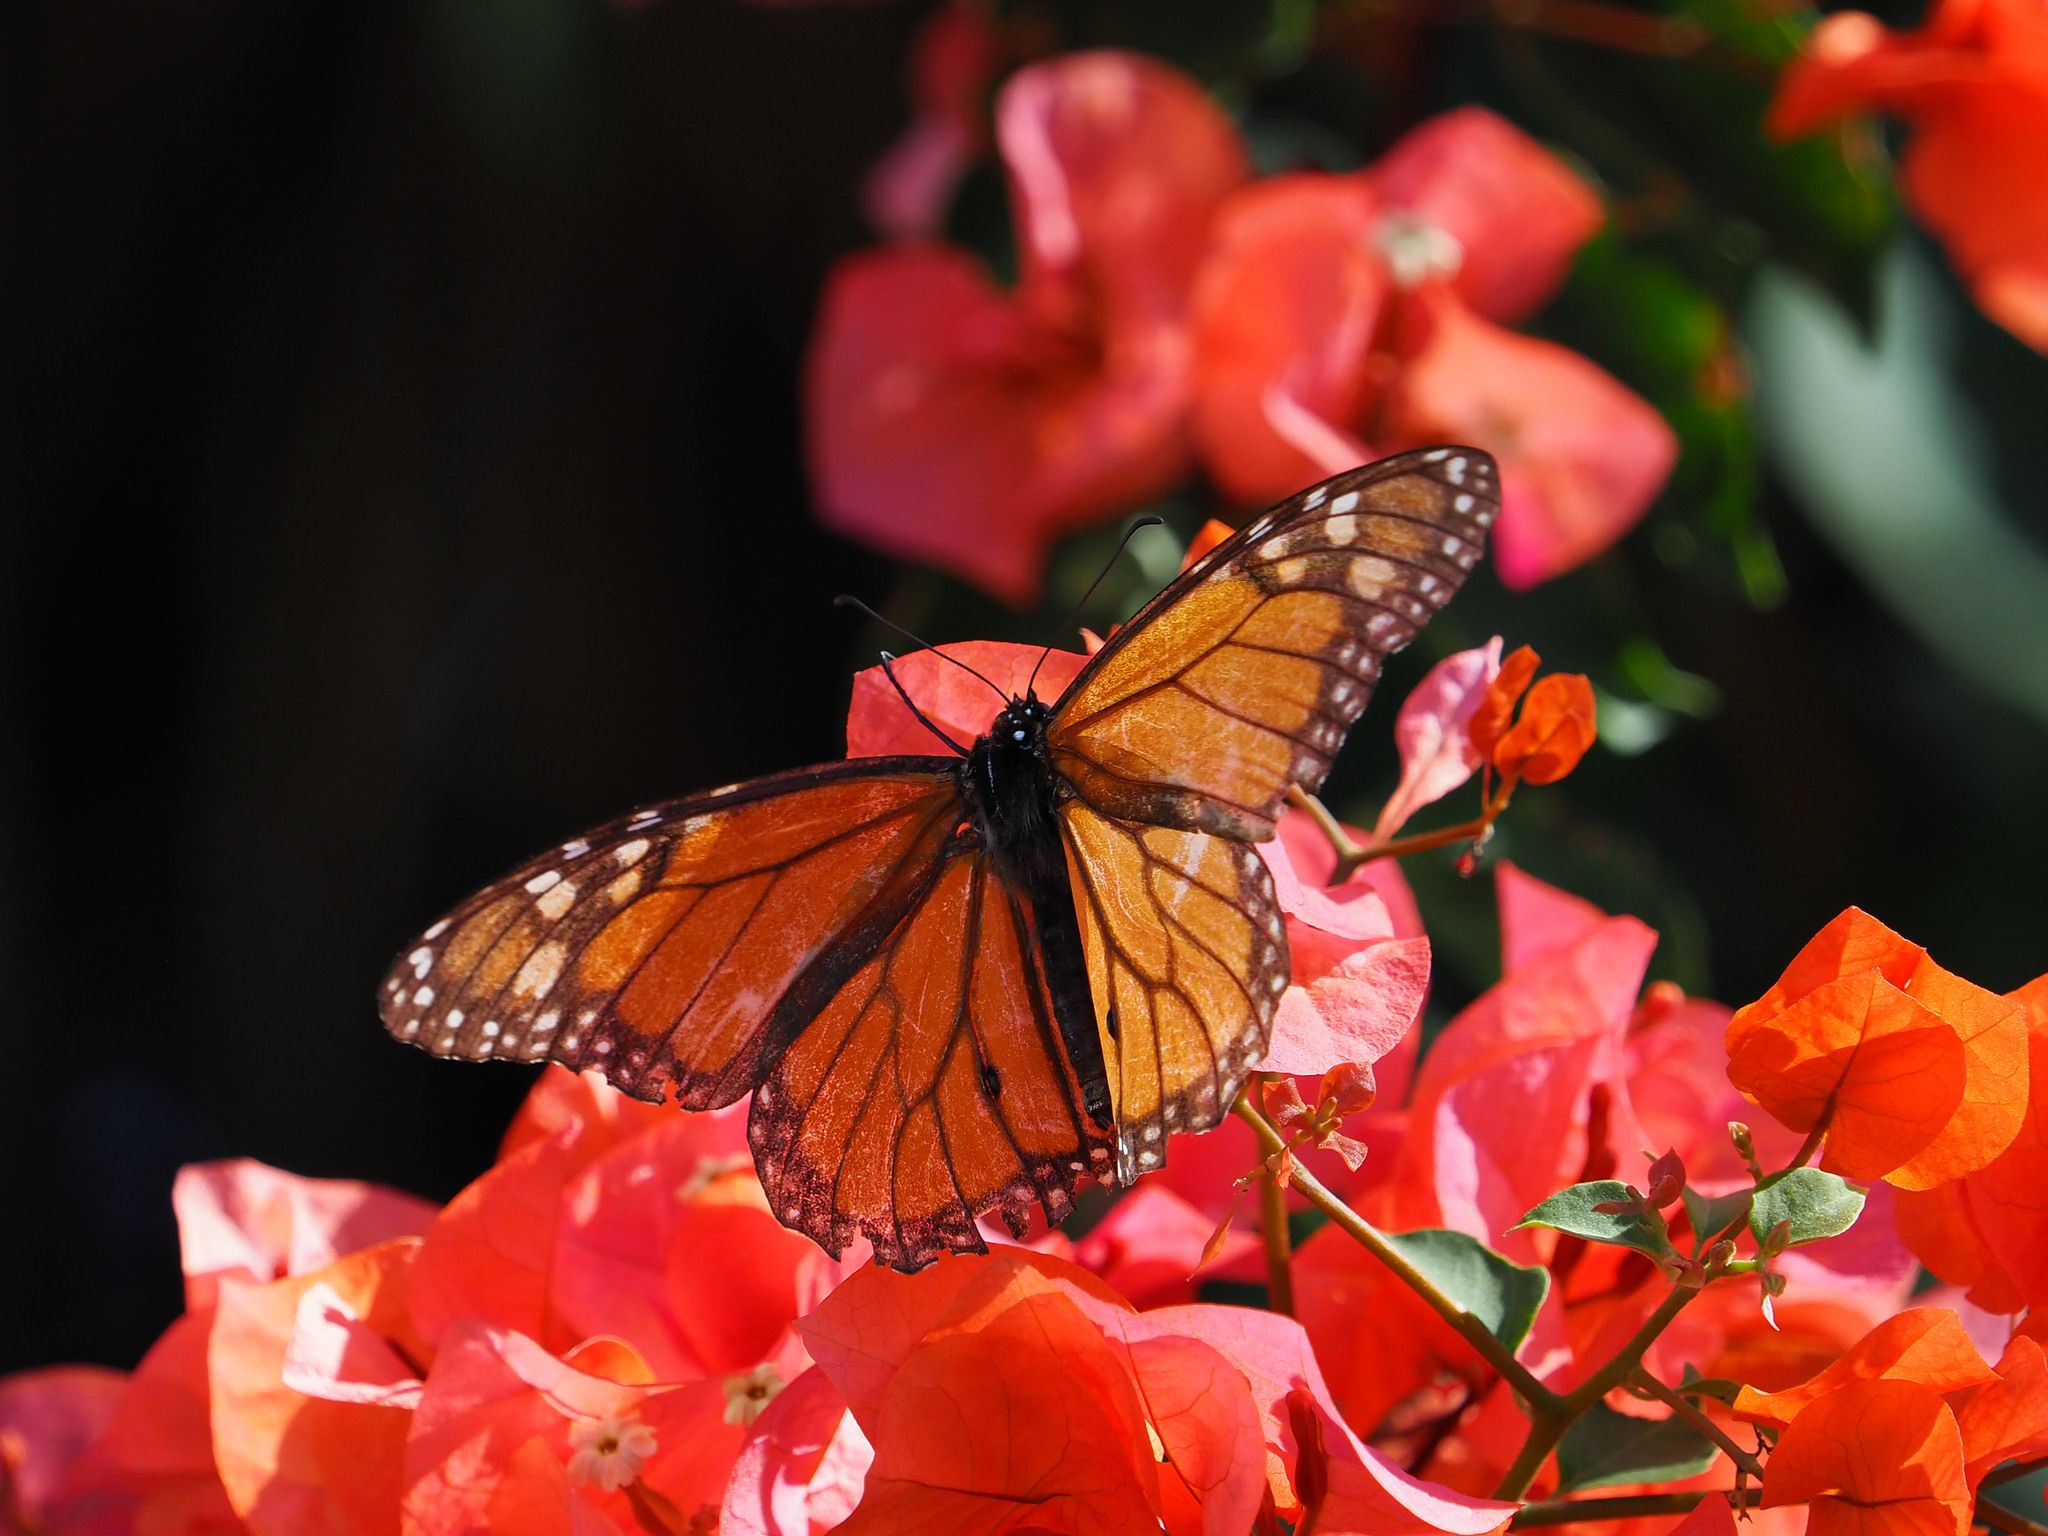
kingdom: Animalia
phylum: Arthropoda
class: Insecta
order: Lepidoptera
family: Nymphalidae
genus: Danaus
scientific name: Danaus plexippus
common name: Monarch
